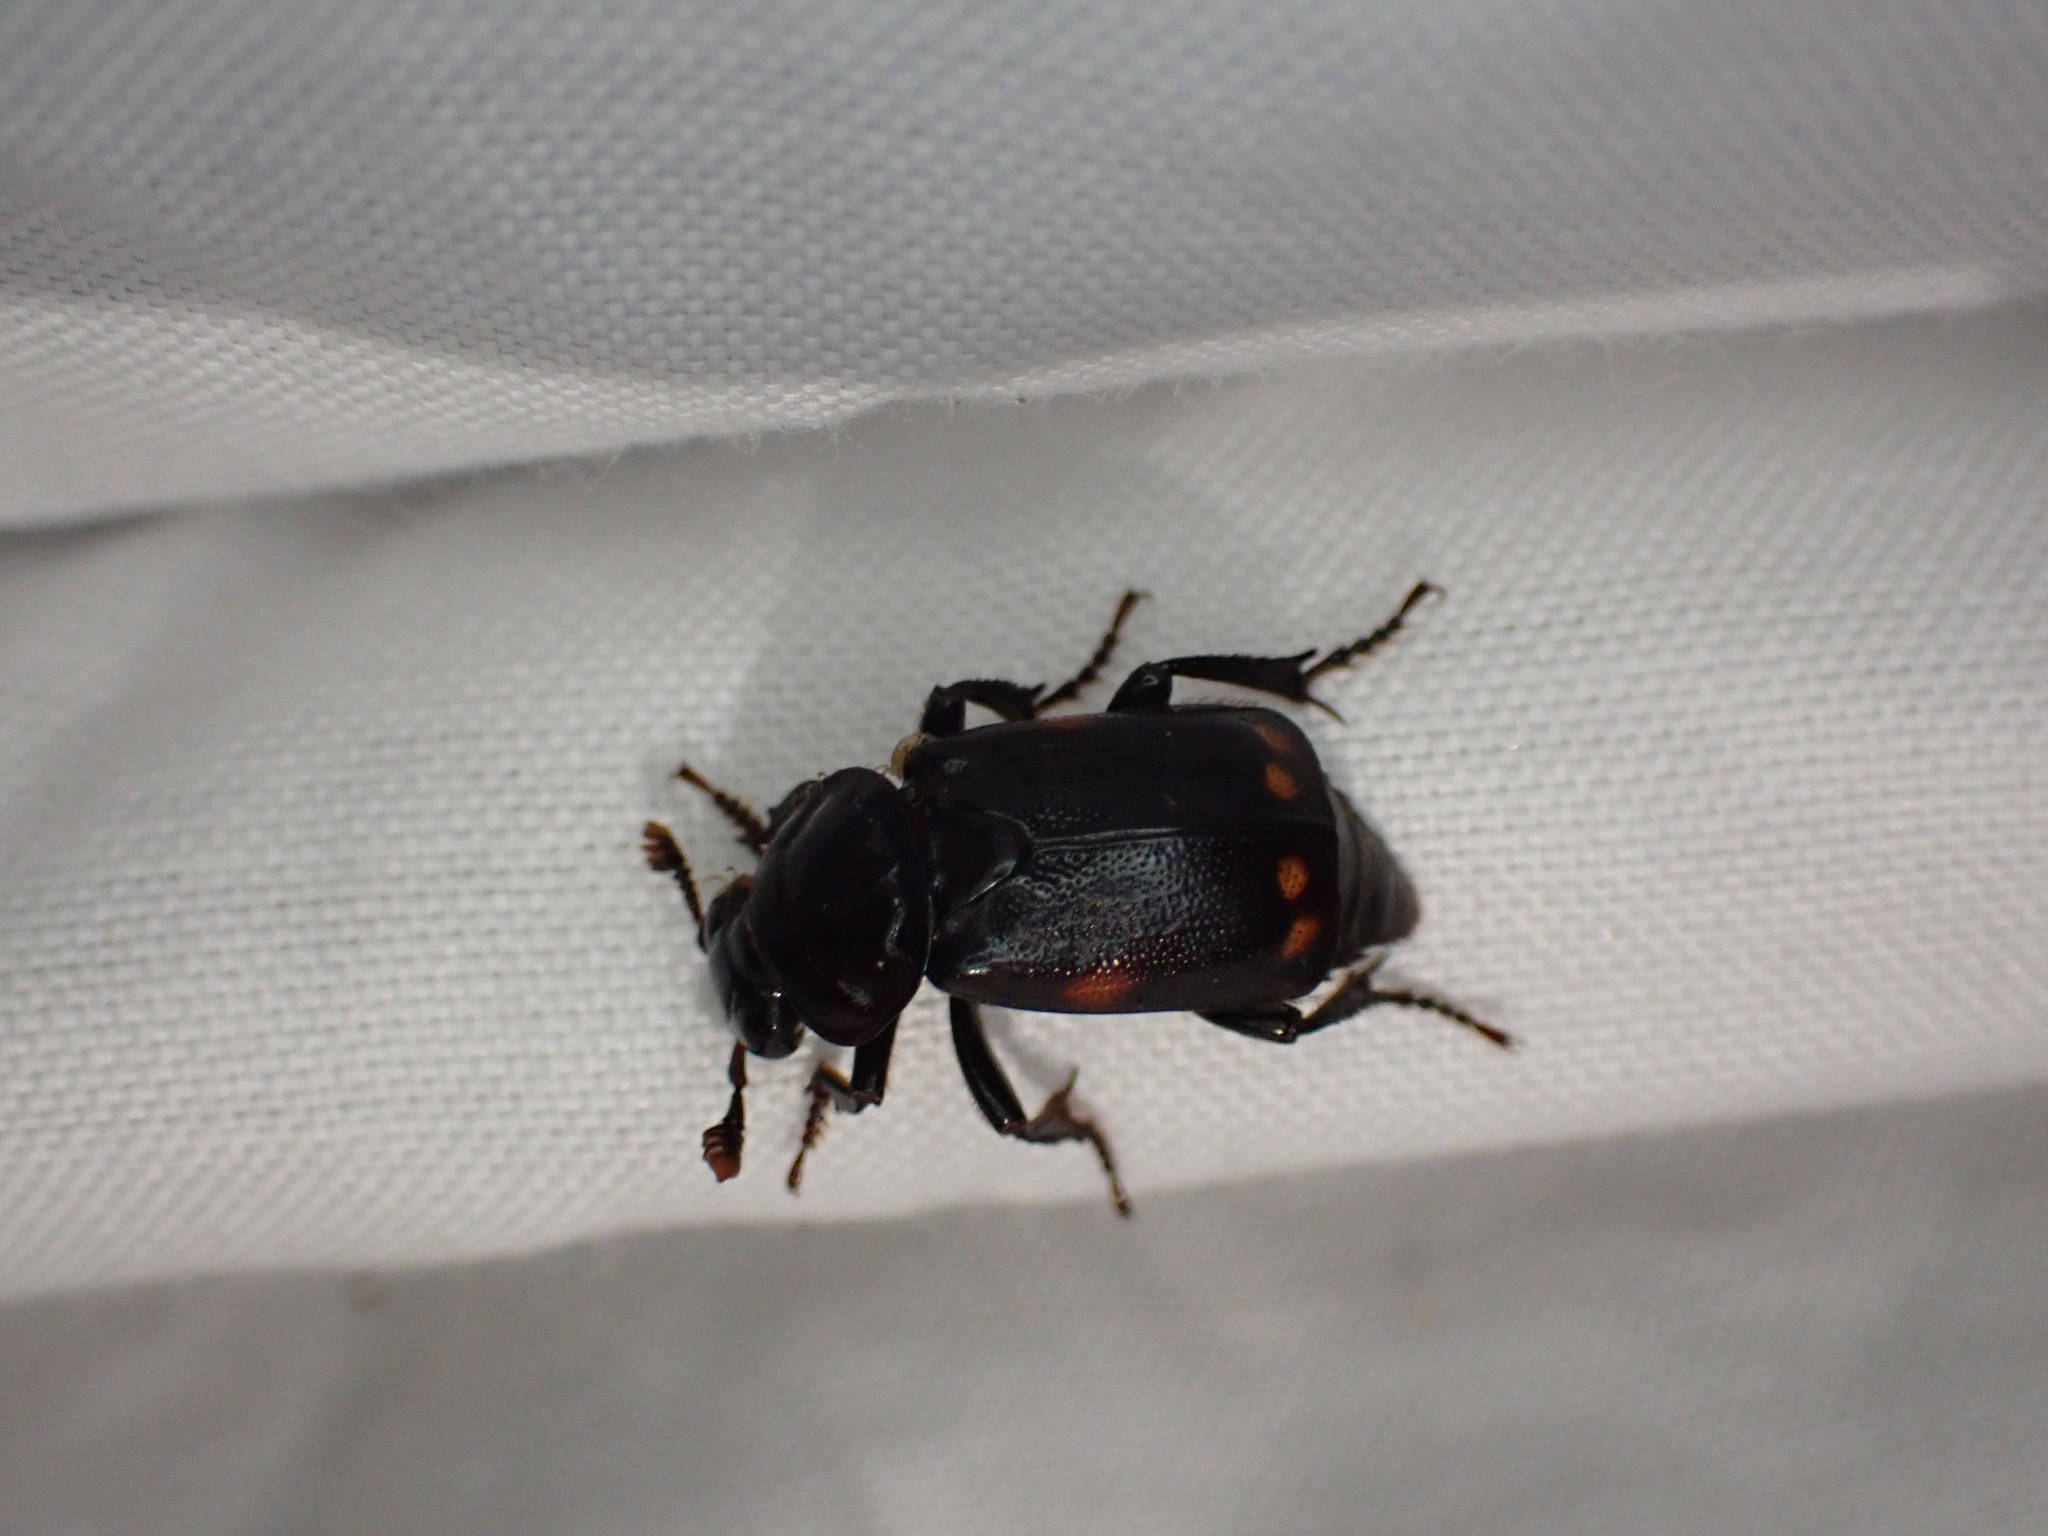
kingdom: Animalia
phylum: Arthropoda
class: Insecta
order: Coleoptera
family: Staphylinidae
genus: Nicrophorus
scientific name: Nicrophorus pustulatus
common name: Pustulated carrion beetle
